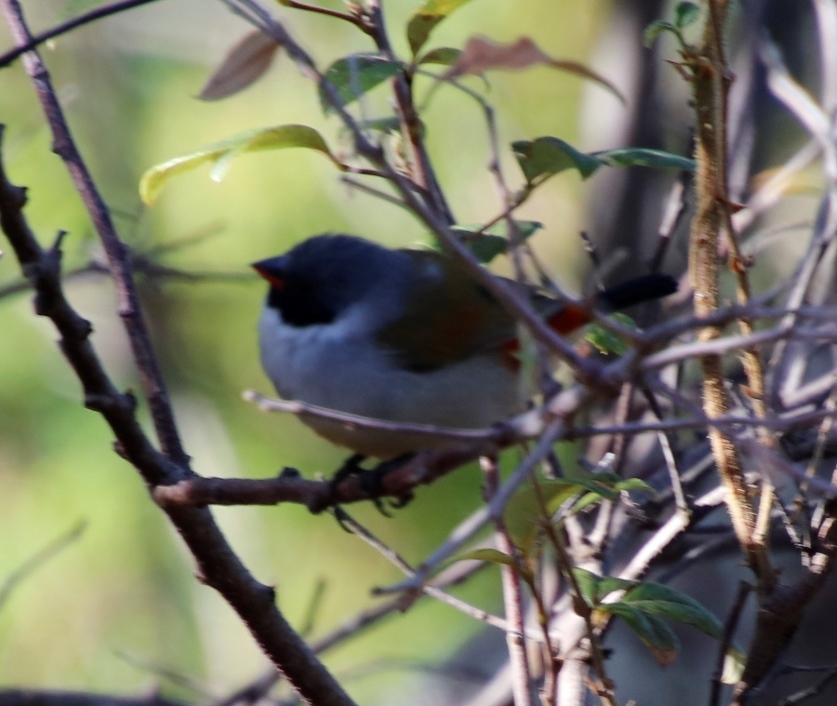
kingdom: Animalia
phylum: Chordata
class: Aves
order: Passeriformes
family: Estrildidae
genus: Coccopygia
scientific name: Coccopygia melanotis
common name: Swee waxbill
